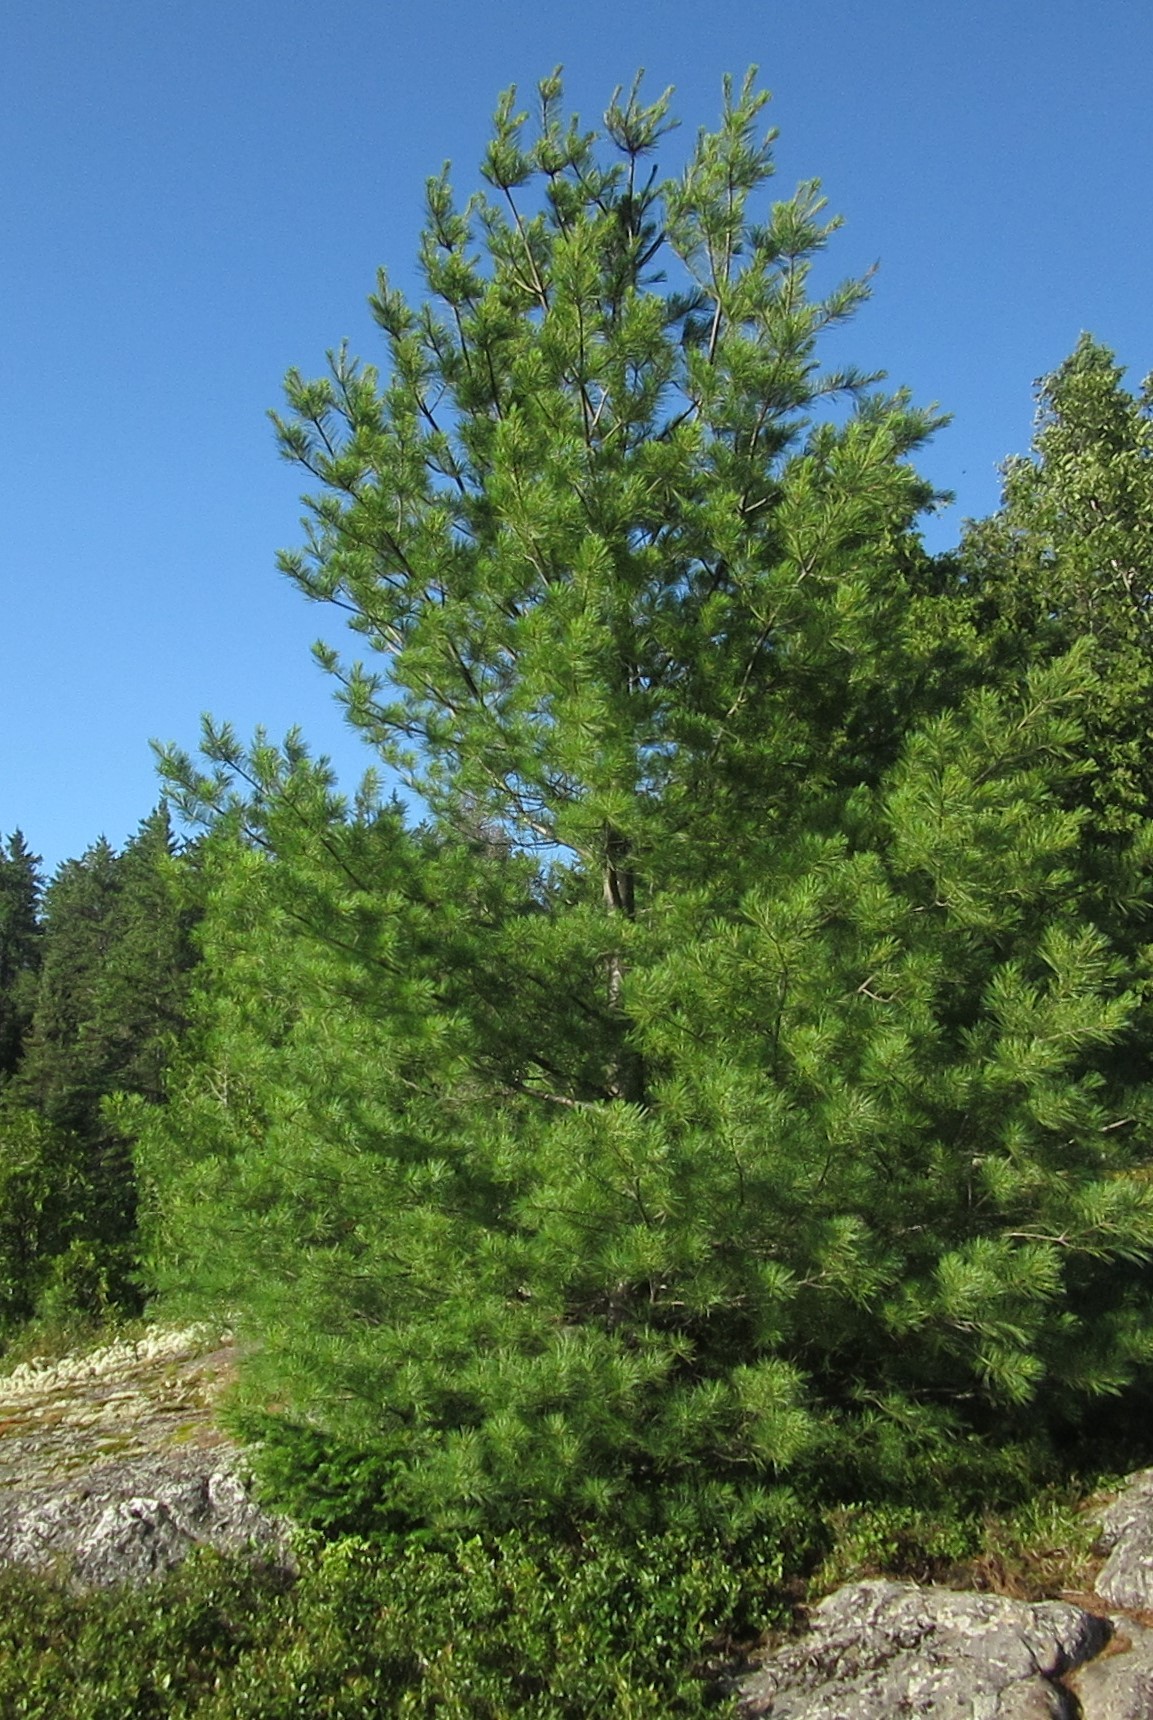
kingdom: Plantae
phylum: Tracheophyta
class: Pinopsida
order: Pinales
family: Pinaceae
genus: Pinus
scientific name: Pinus strobus
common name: Weymouth pine
